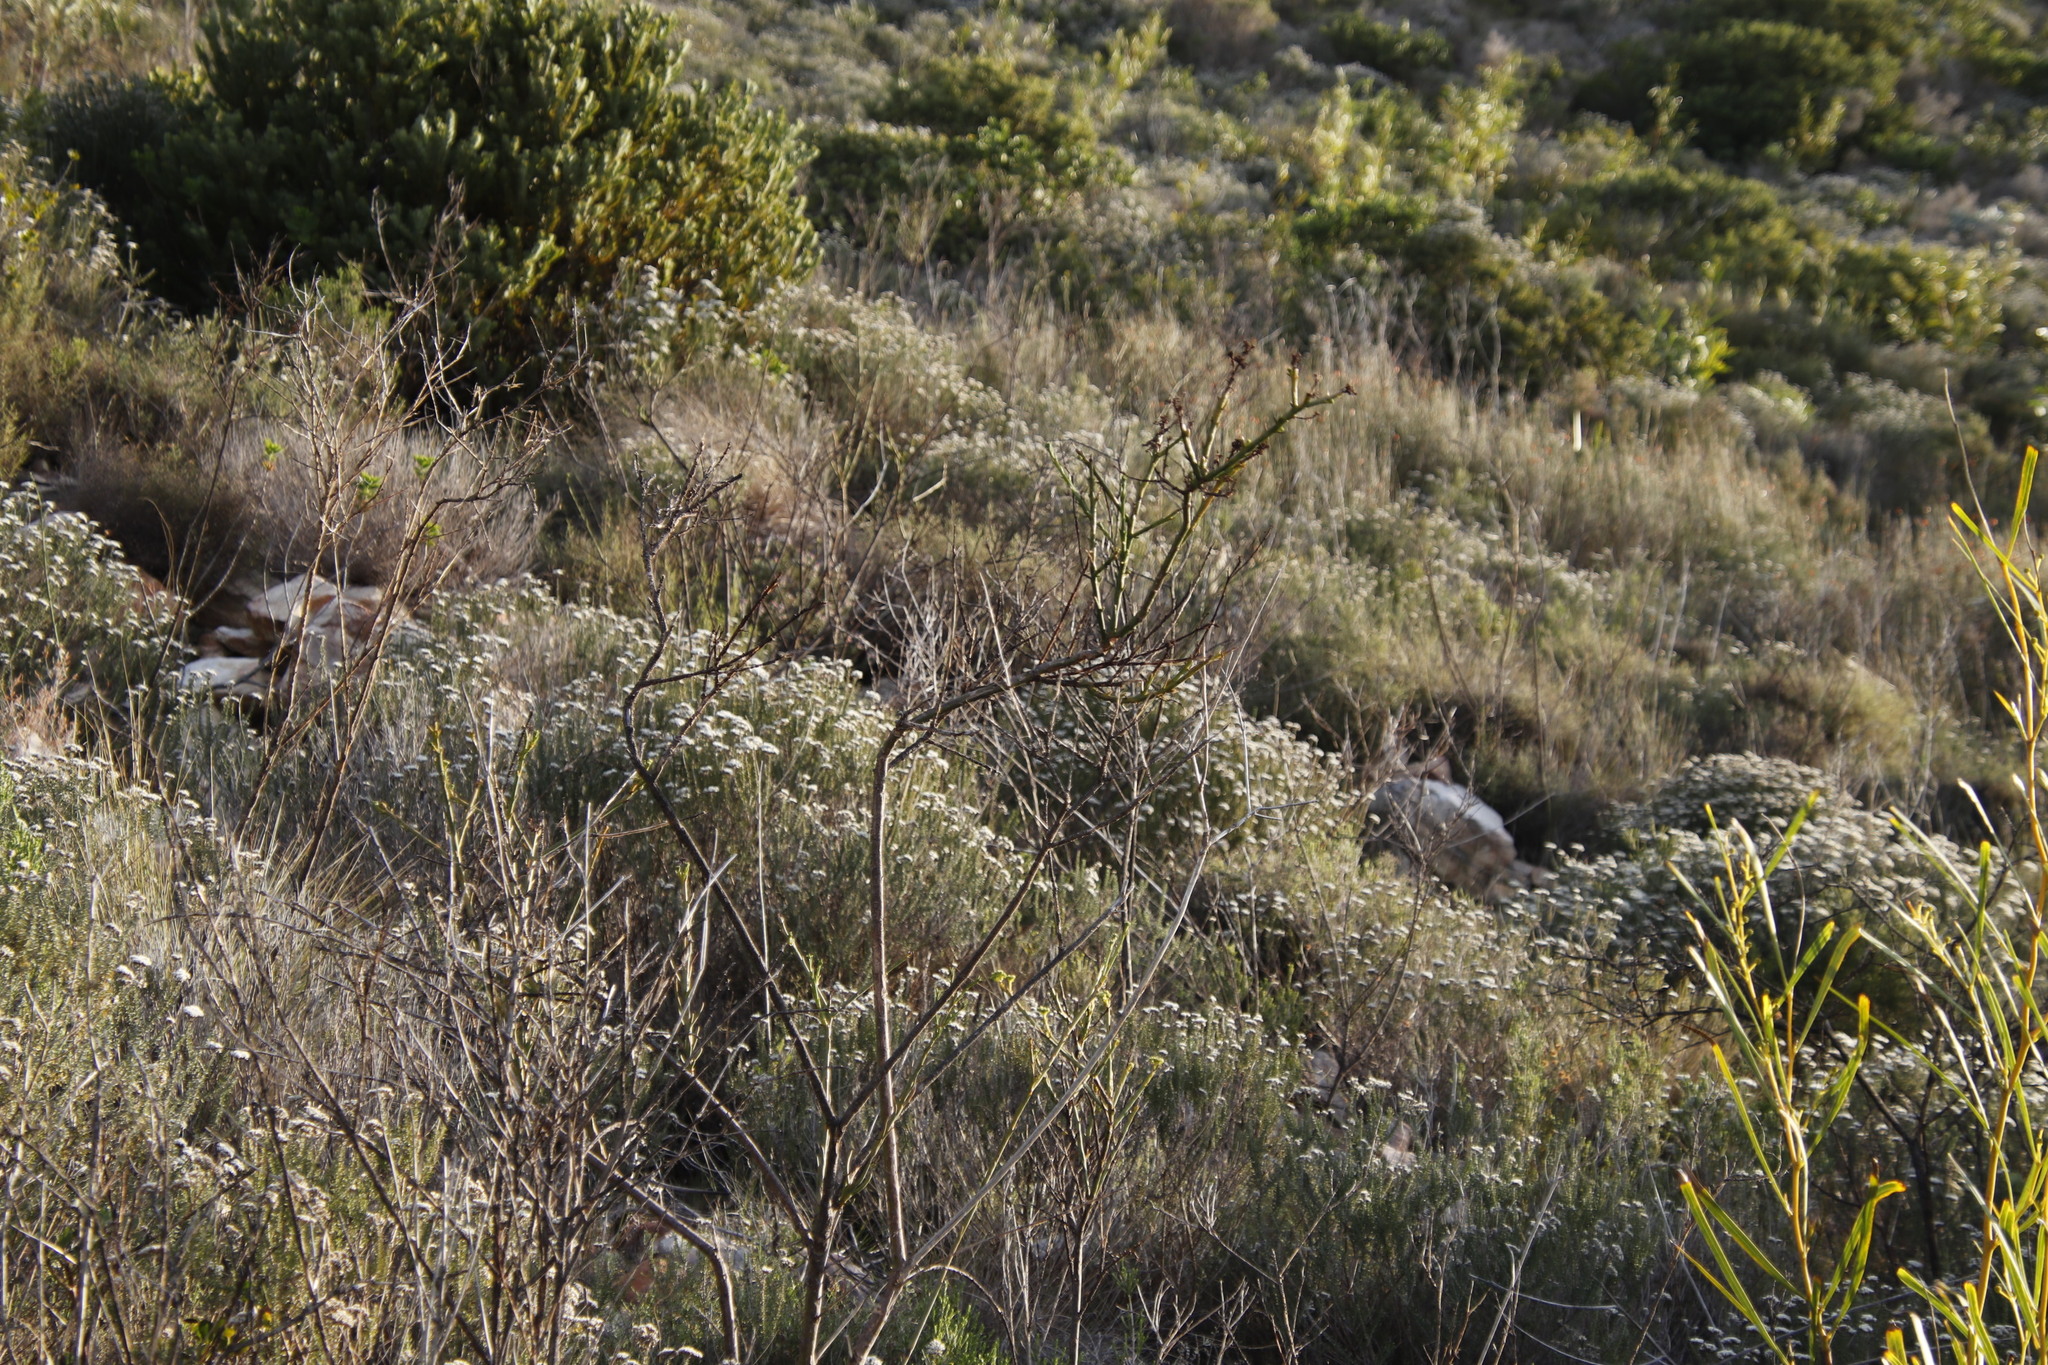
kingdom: Plantae
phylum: Tracheophyta
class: Magnoliopsida
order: Santalales
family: Thesiaceae
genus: Thesium
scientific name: Thesium strictum
